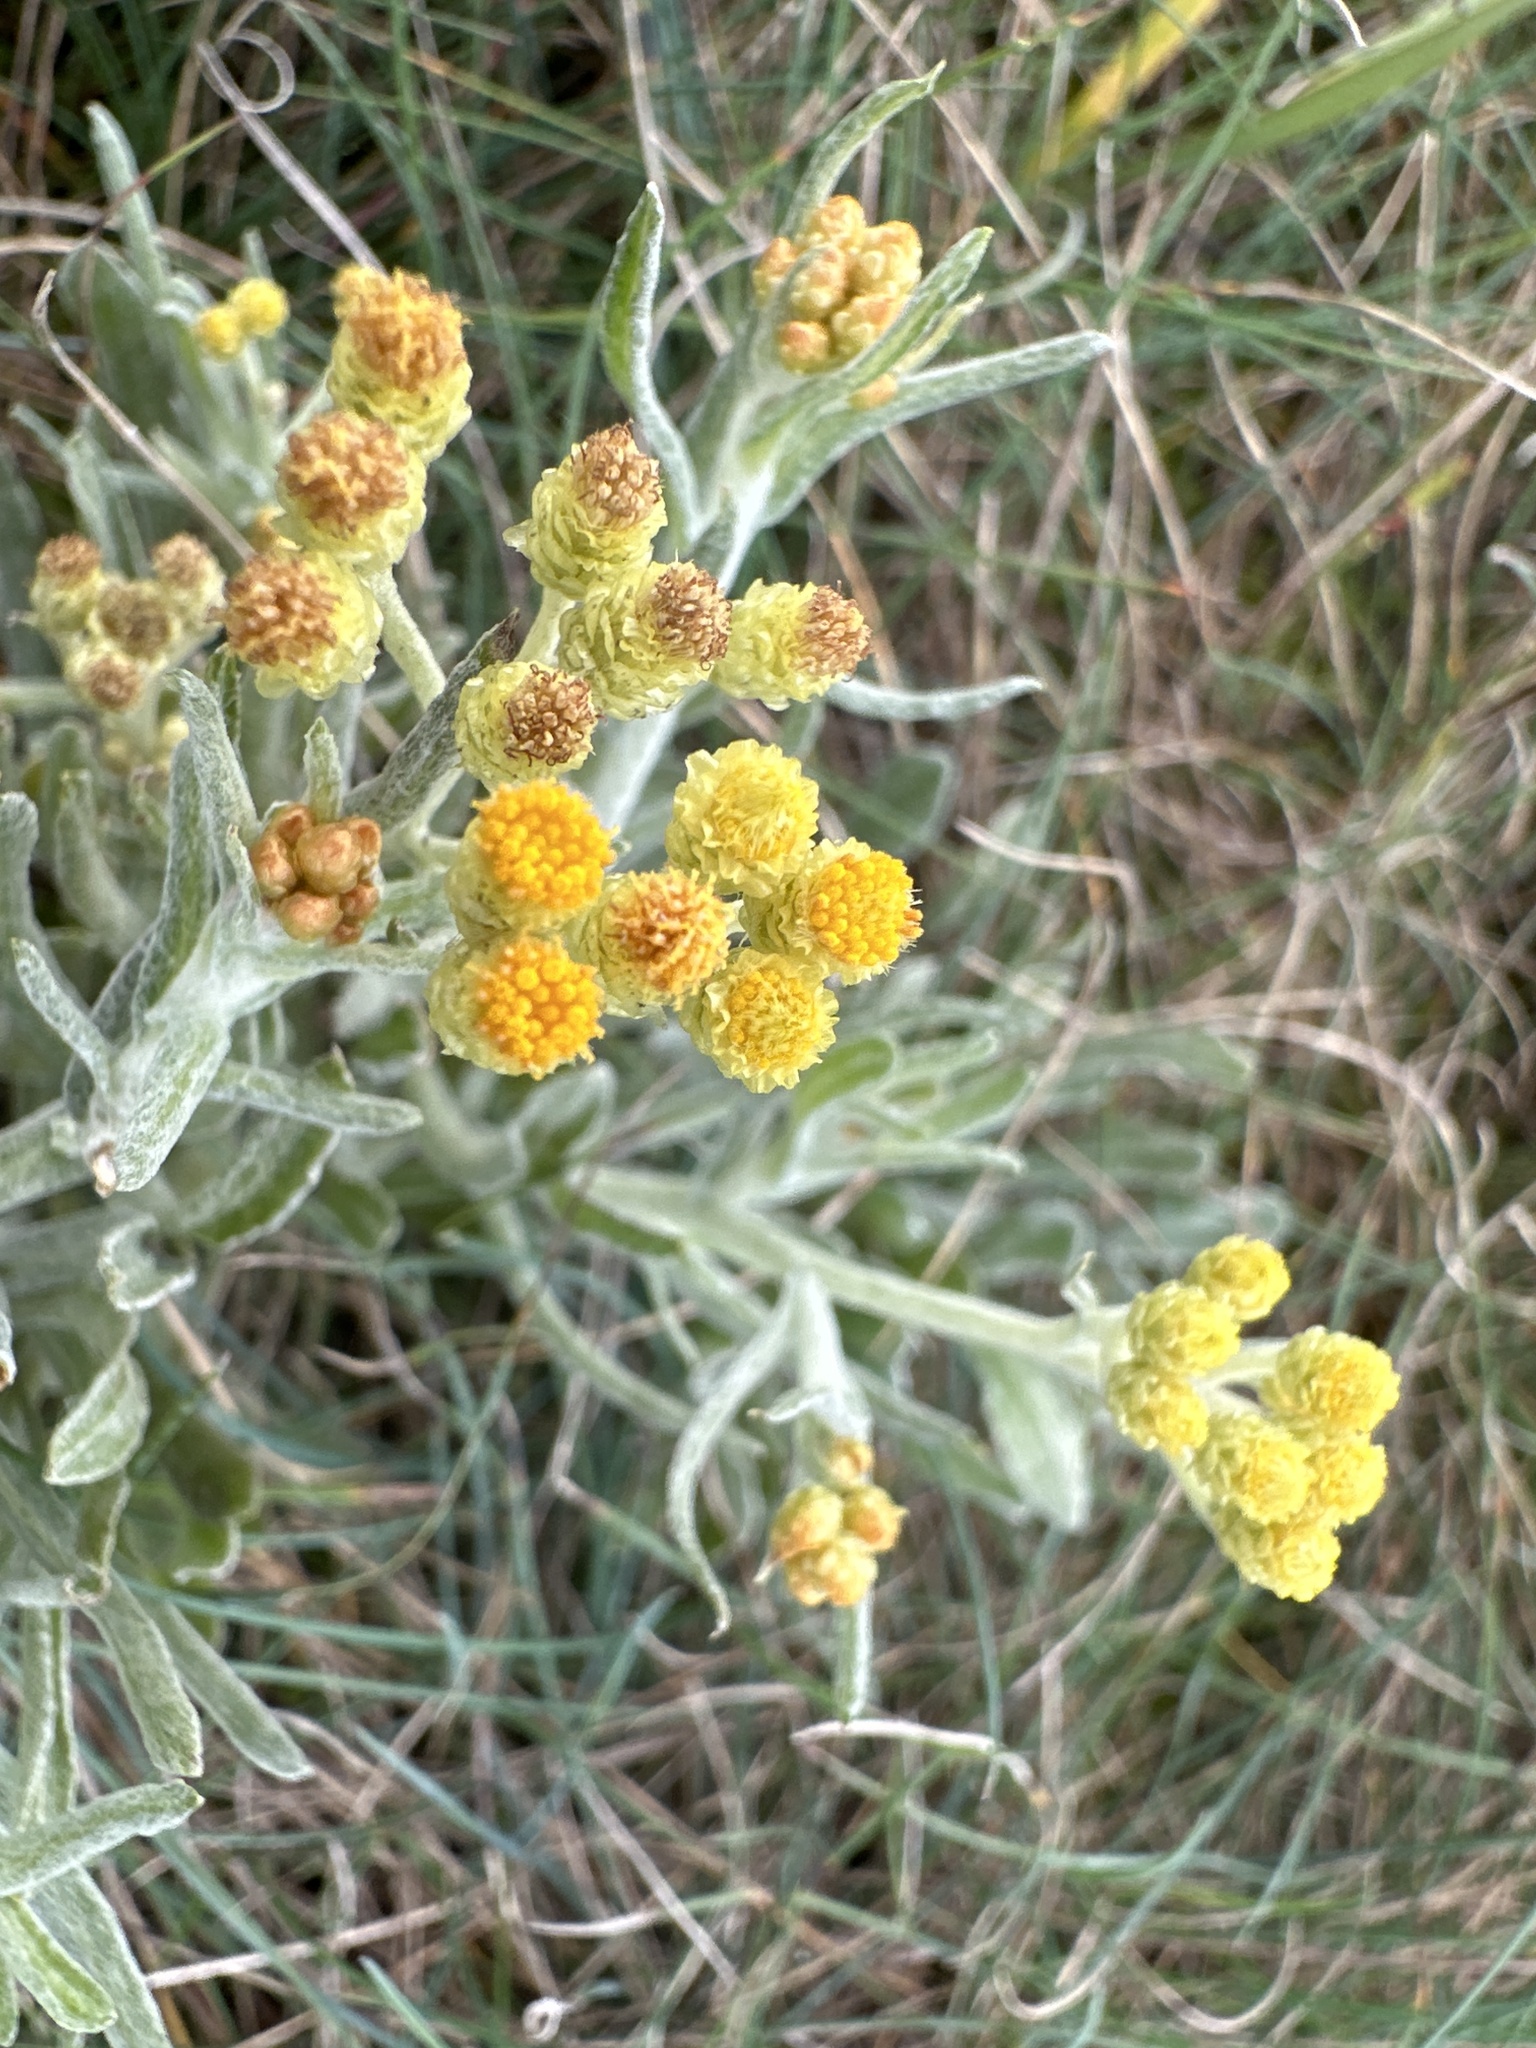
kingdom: Plantae
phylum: Tracheophyta
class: Magnoliopsida
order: Asterales
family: Asteraceae
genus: Helichrysum
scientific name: Helichrysum arenarium
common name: Strawflower
